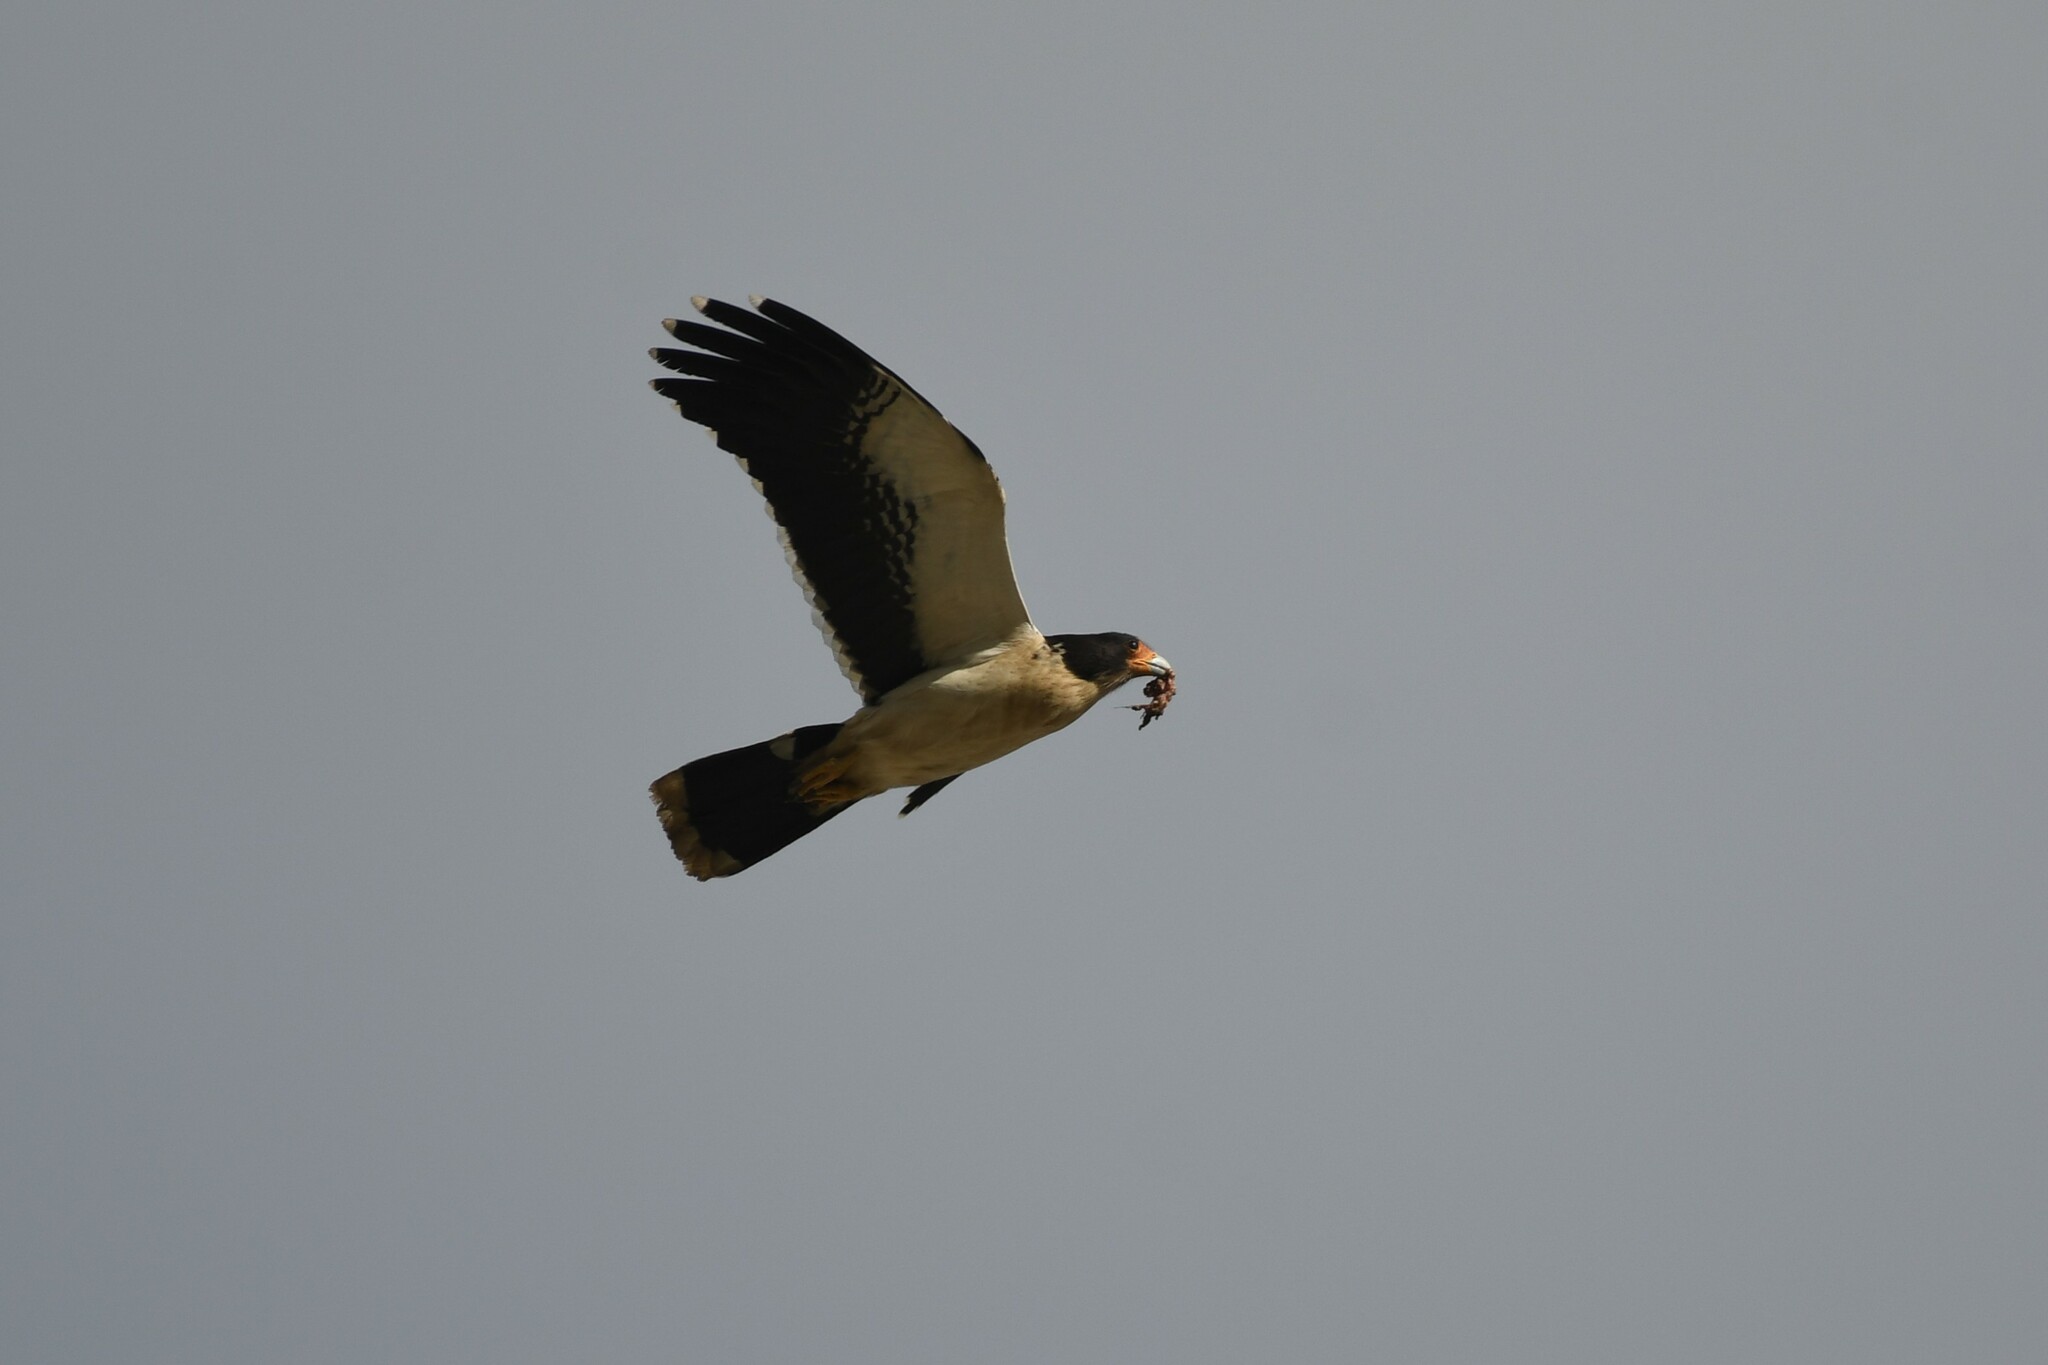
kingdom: Animalia
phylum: Chordata
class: Aves
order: Falconiformes
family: Falconidae
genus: Daptrius
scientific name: Daptrius
